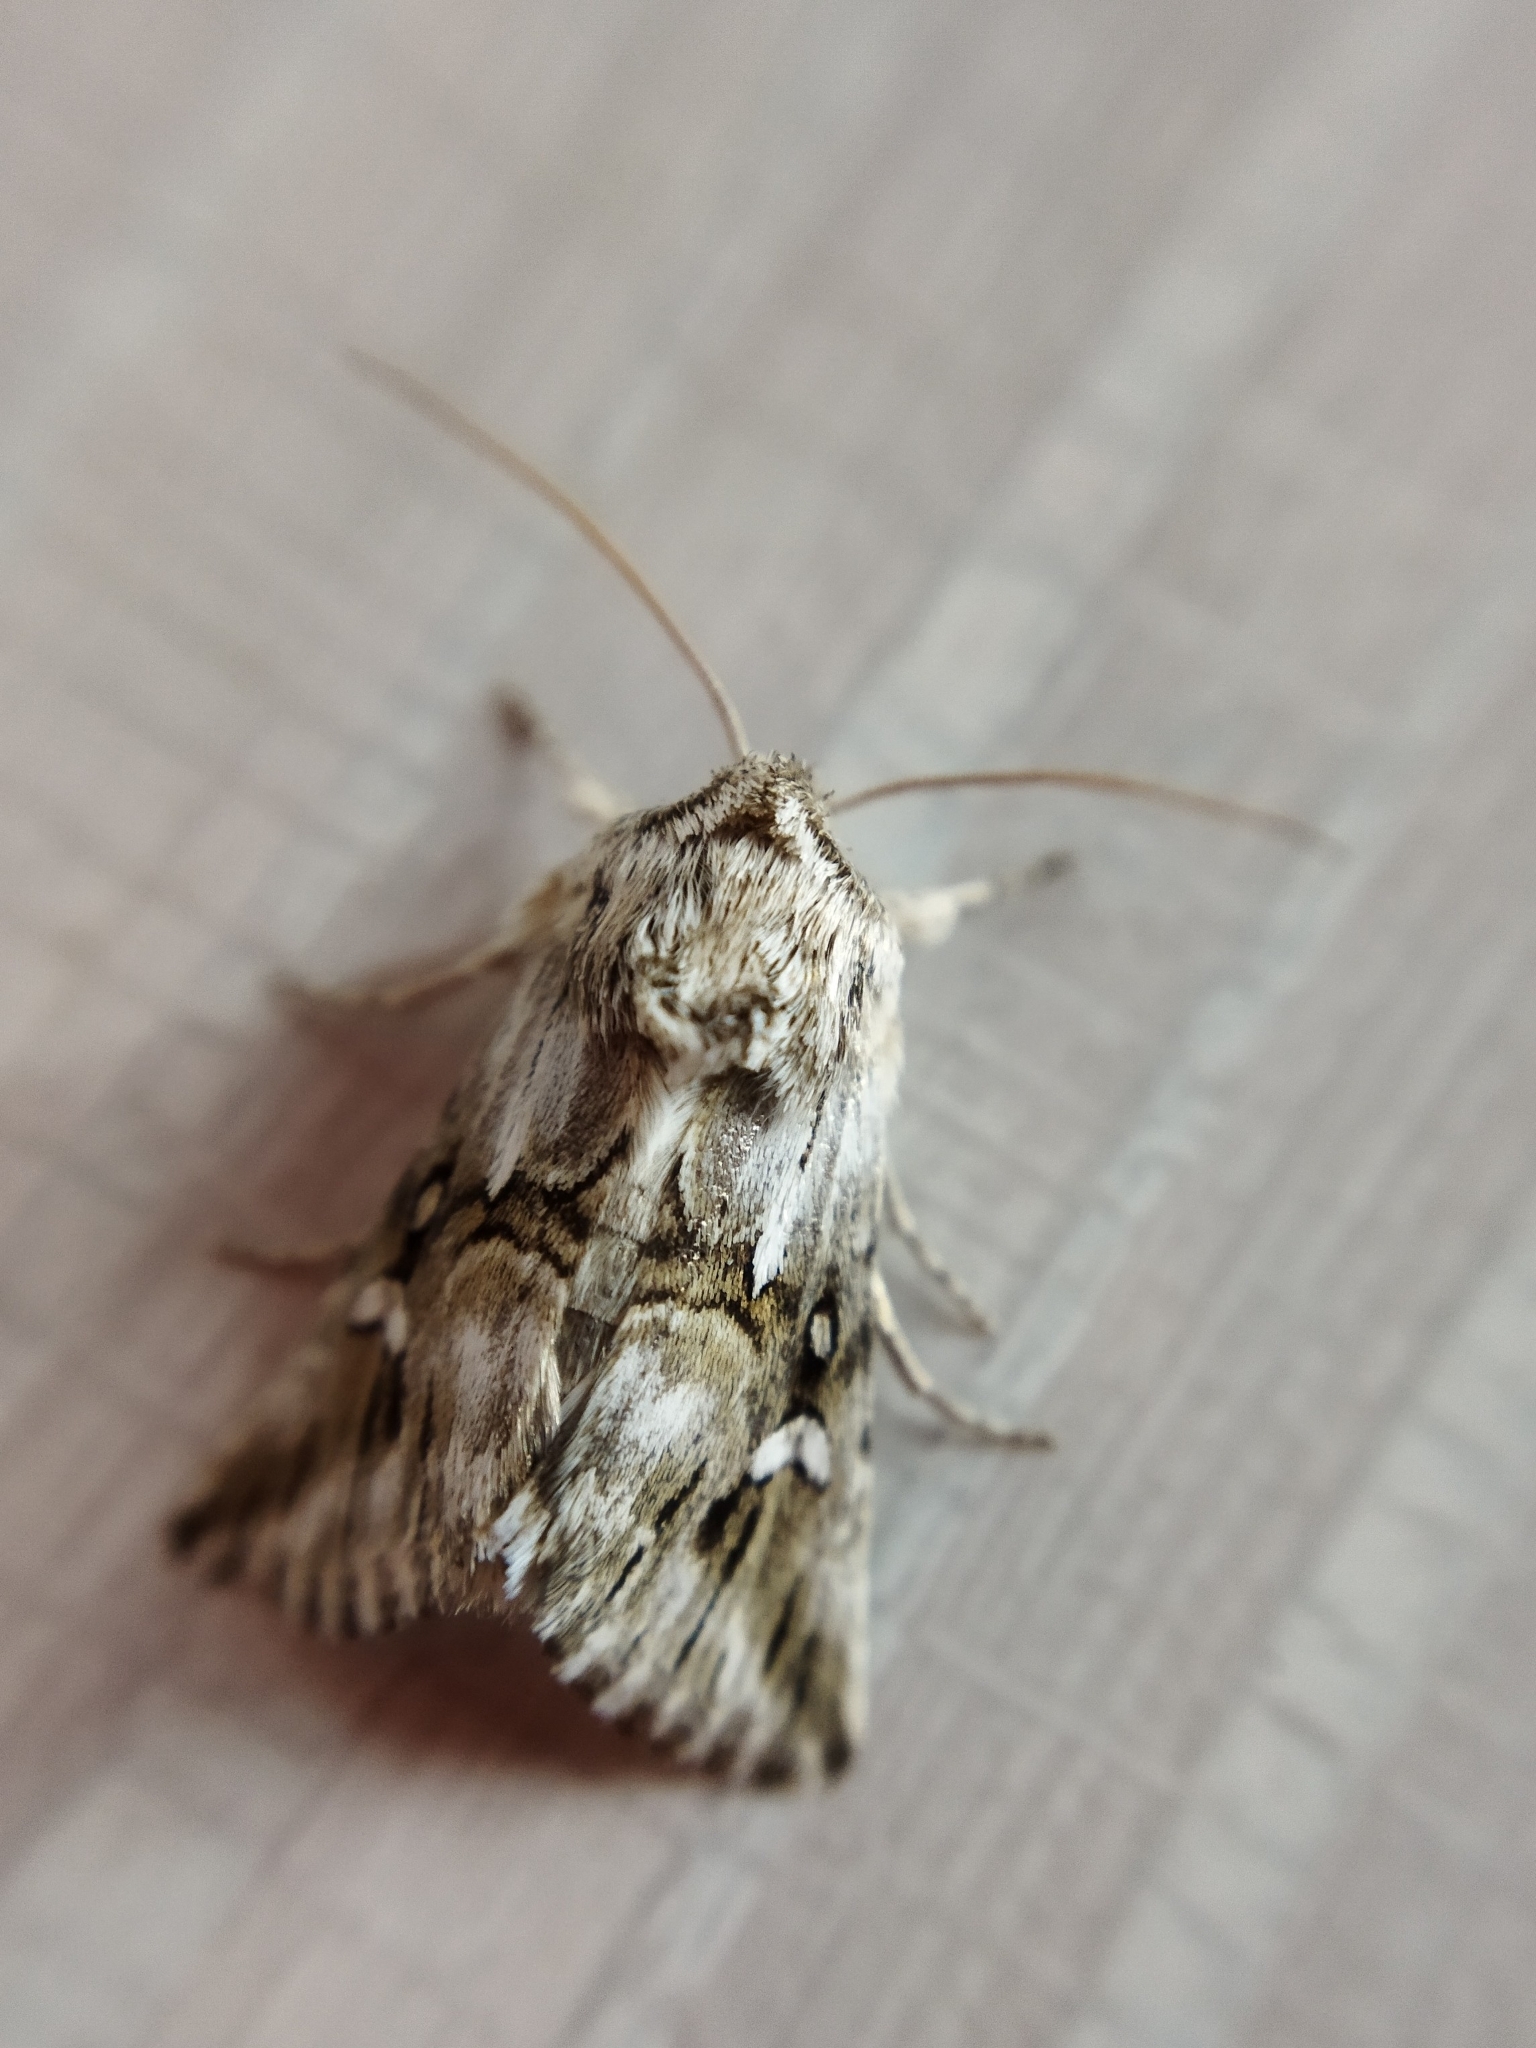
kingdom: Animalia
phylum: Arthropoda
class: Insecta
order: Lepidoptera
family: Noctuidae
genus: Calophasia
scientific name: Calophasia lunula
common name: Toadflax brocade
